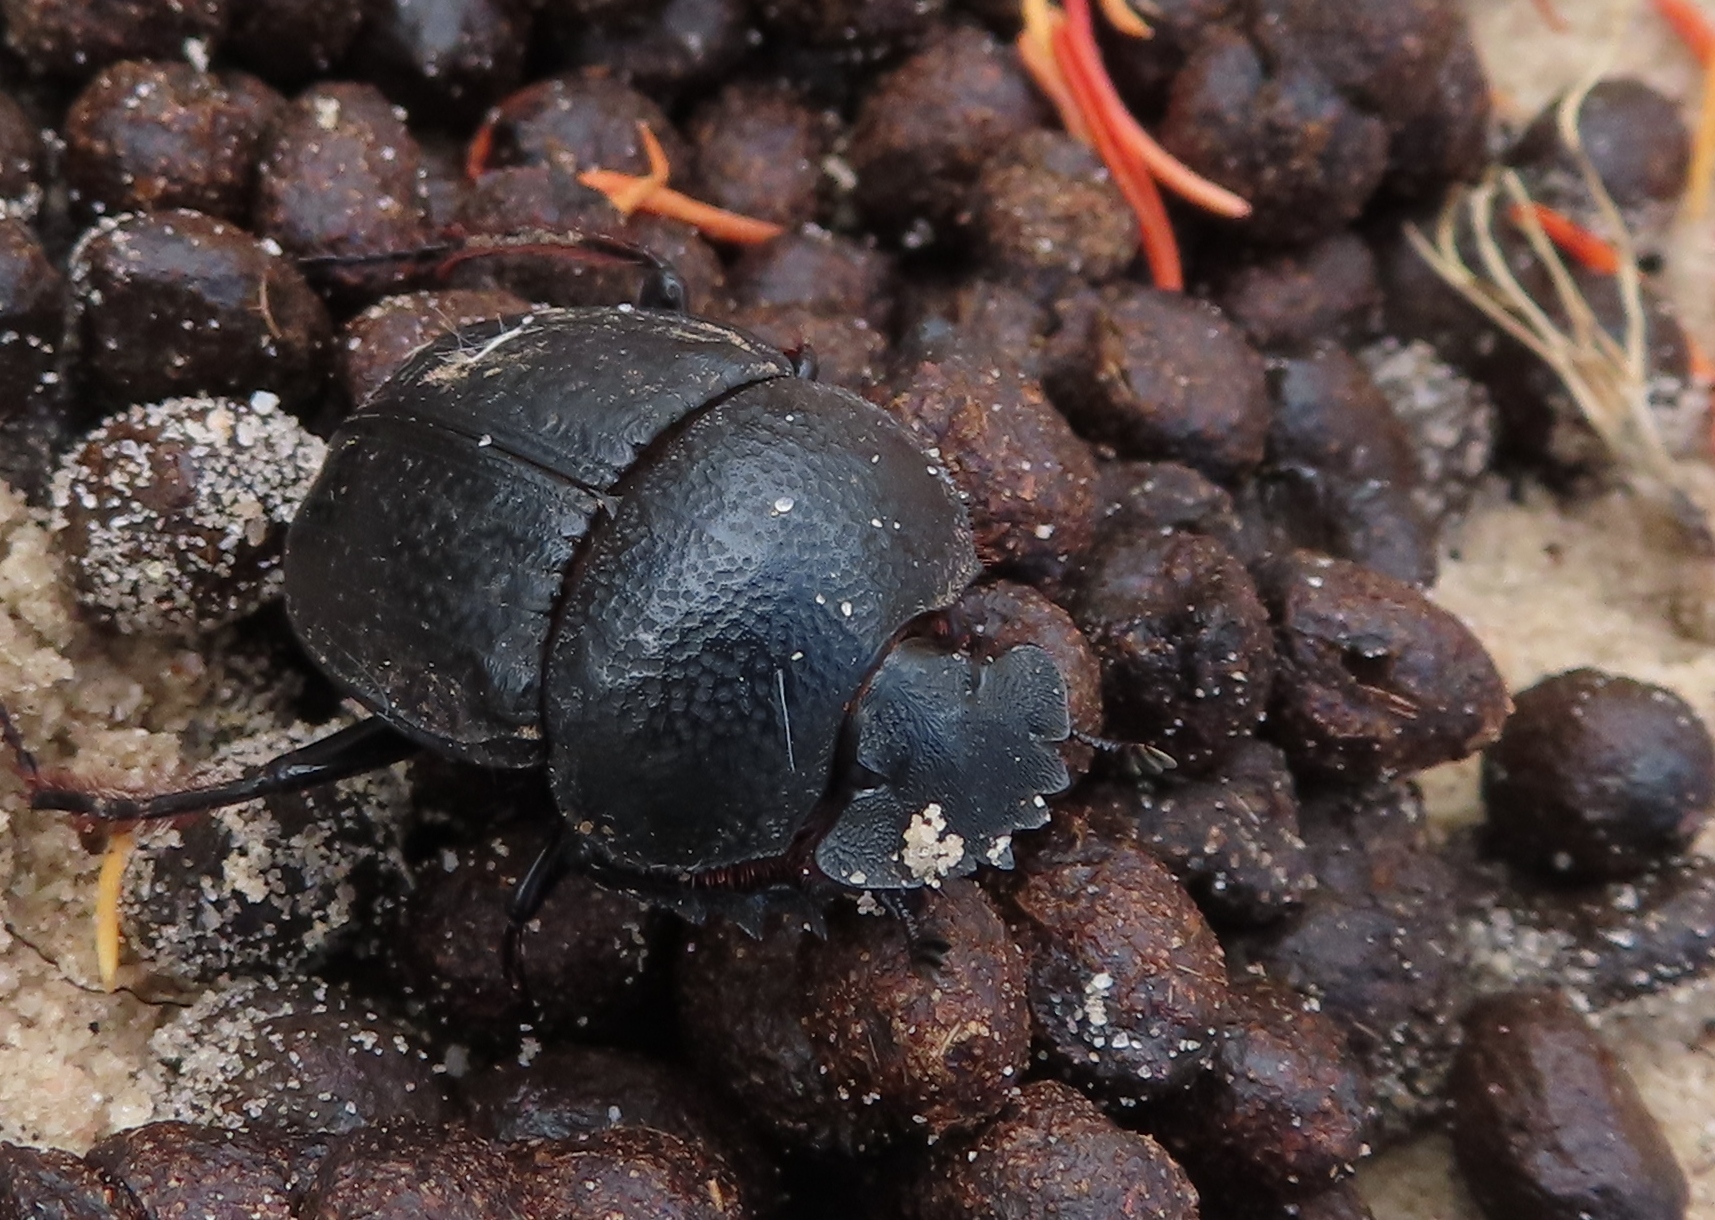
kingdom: Animalia
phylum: Arthropoda
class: Insecta
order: Coleoptera
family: Scarabaeidae
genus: Scarabaeus
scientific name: Scarabaeus rugosus
